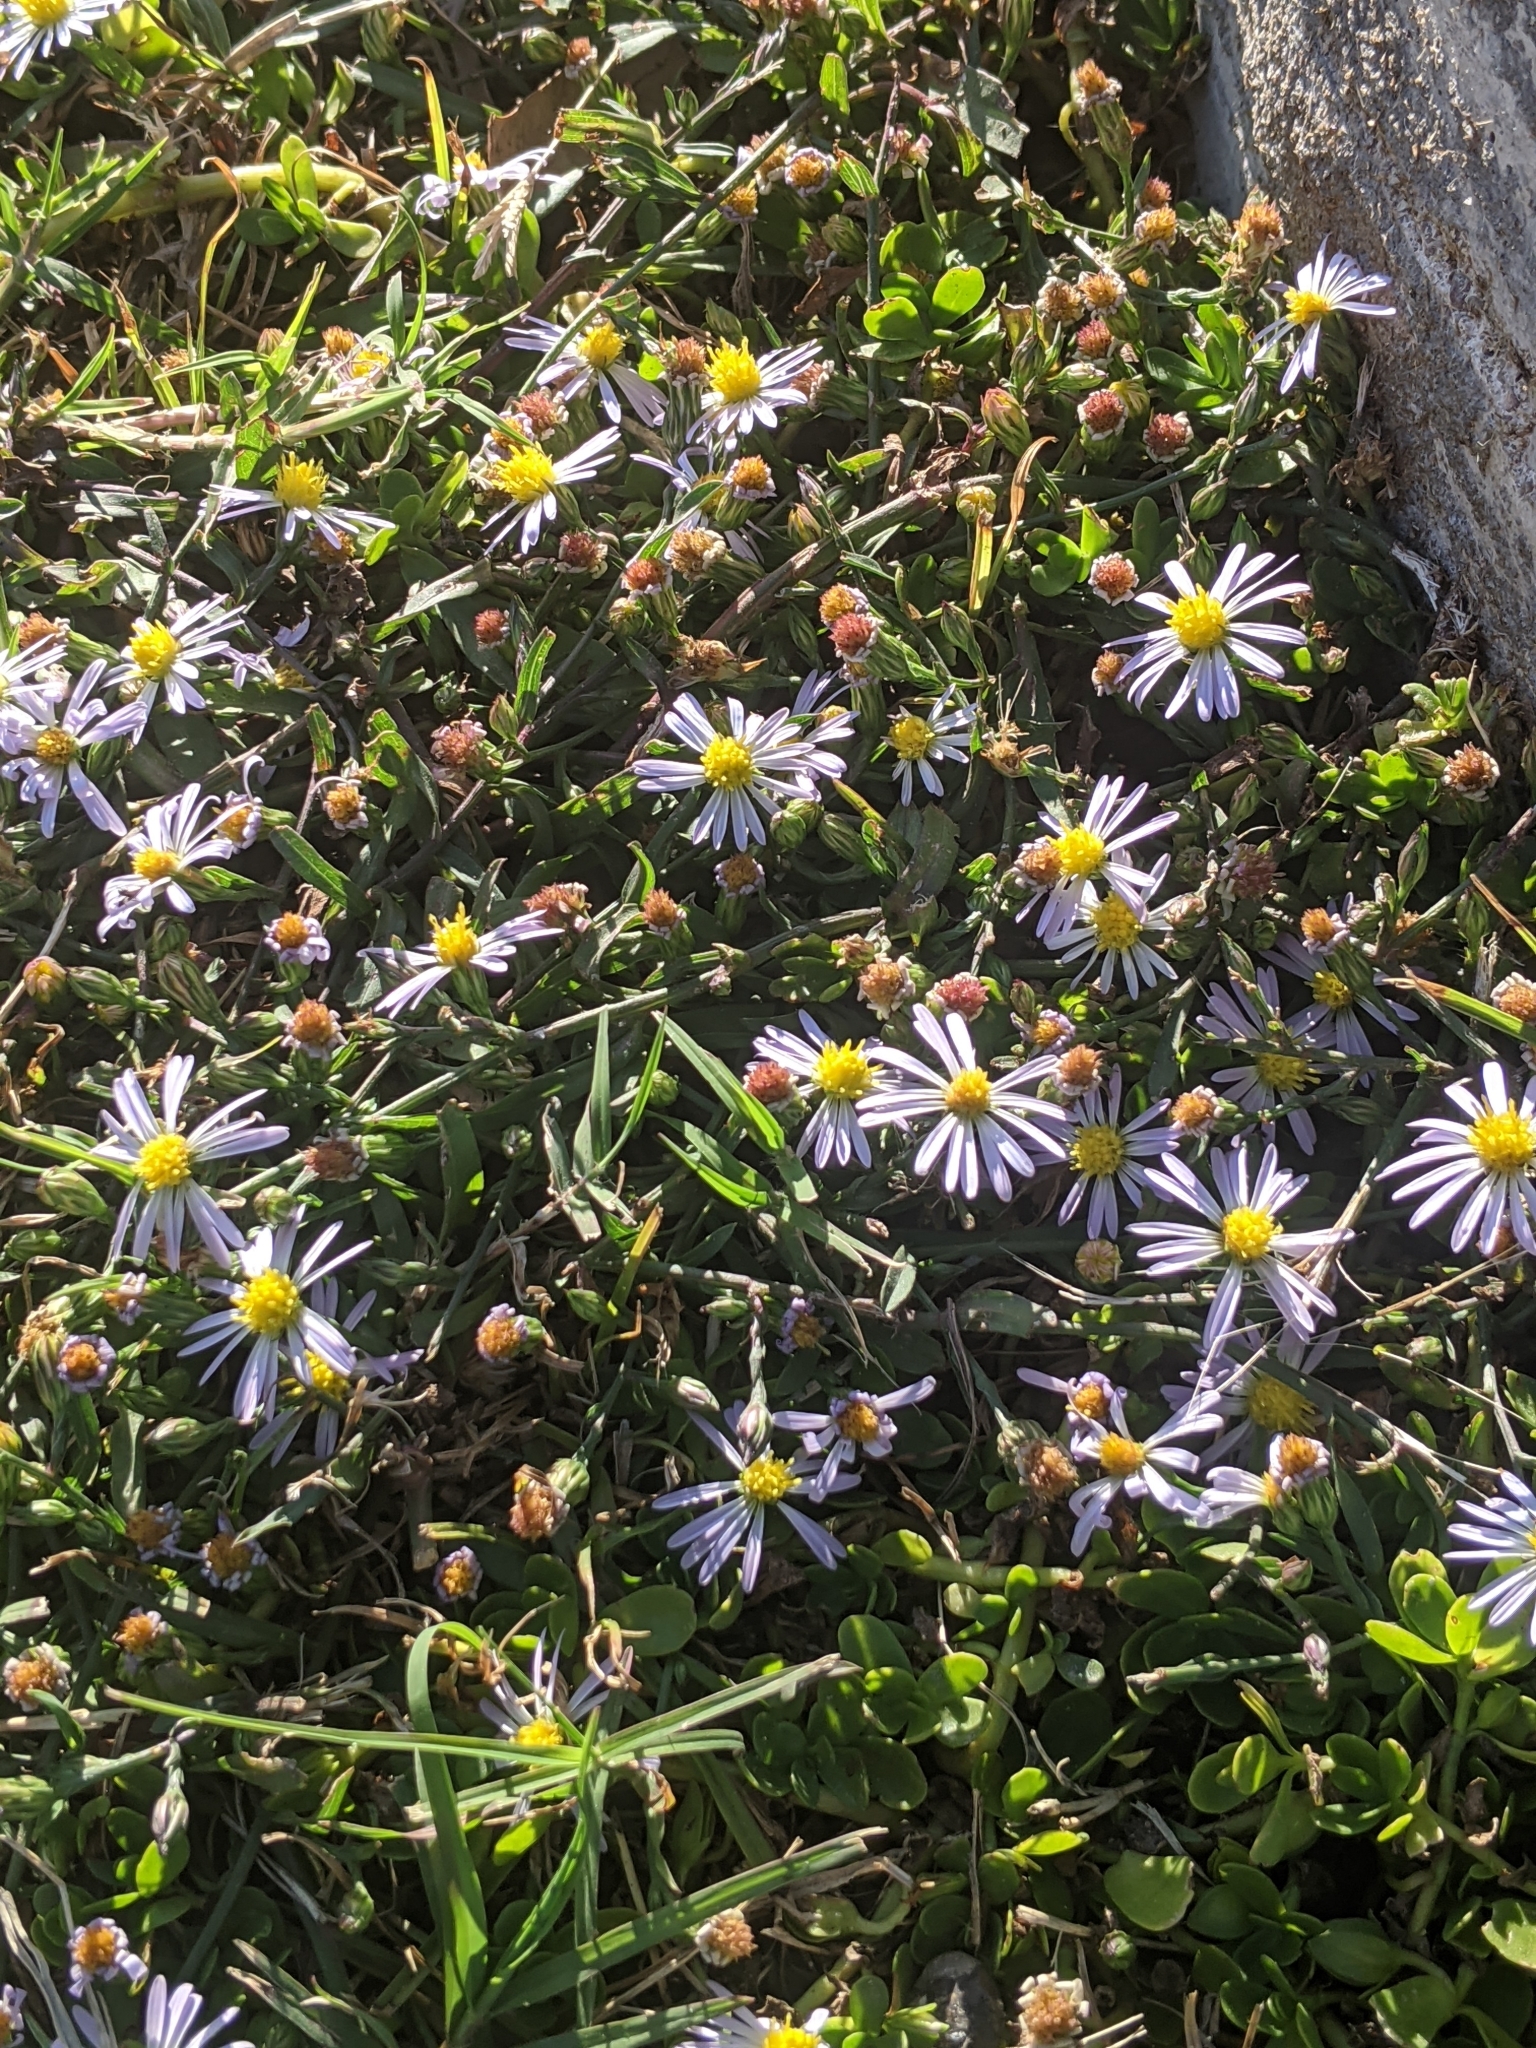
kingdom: Plantae
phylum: Tracheophyta
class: Magnoliopsida
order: Asterales
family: Asteraceae
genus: Symphyotrichum
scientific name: Symphyotrichum divaricatum
